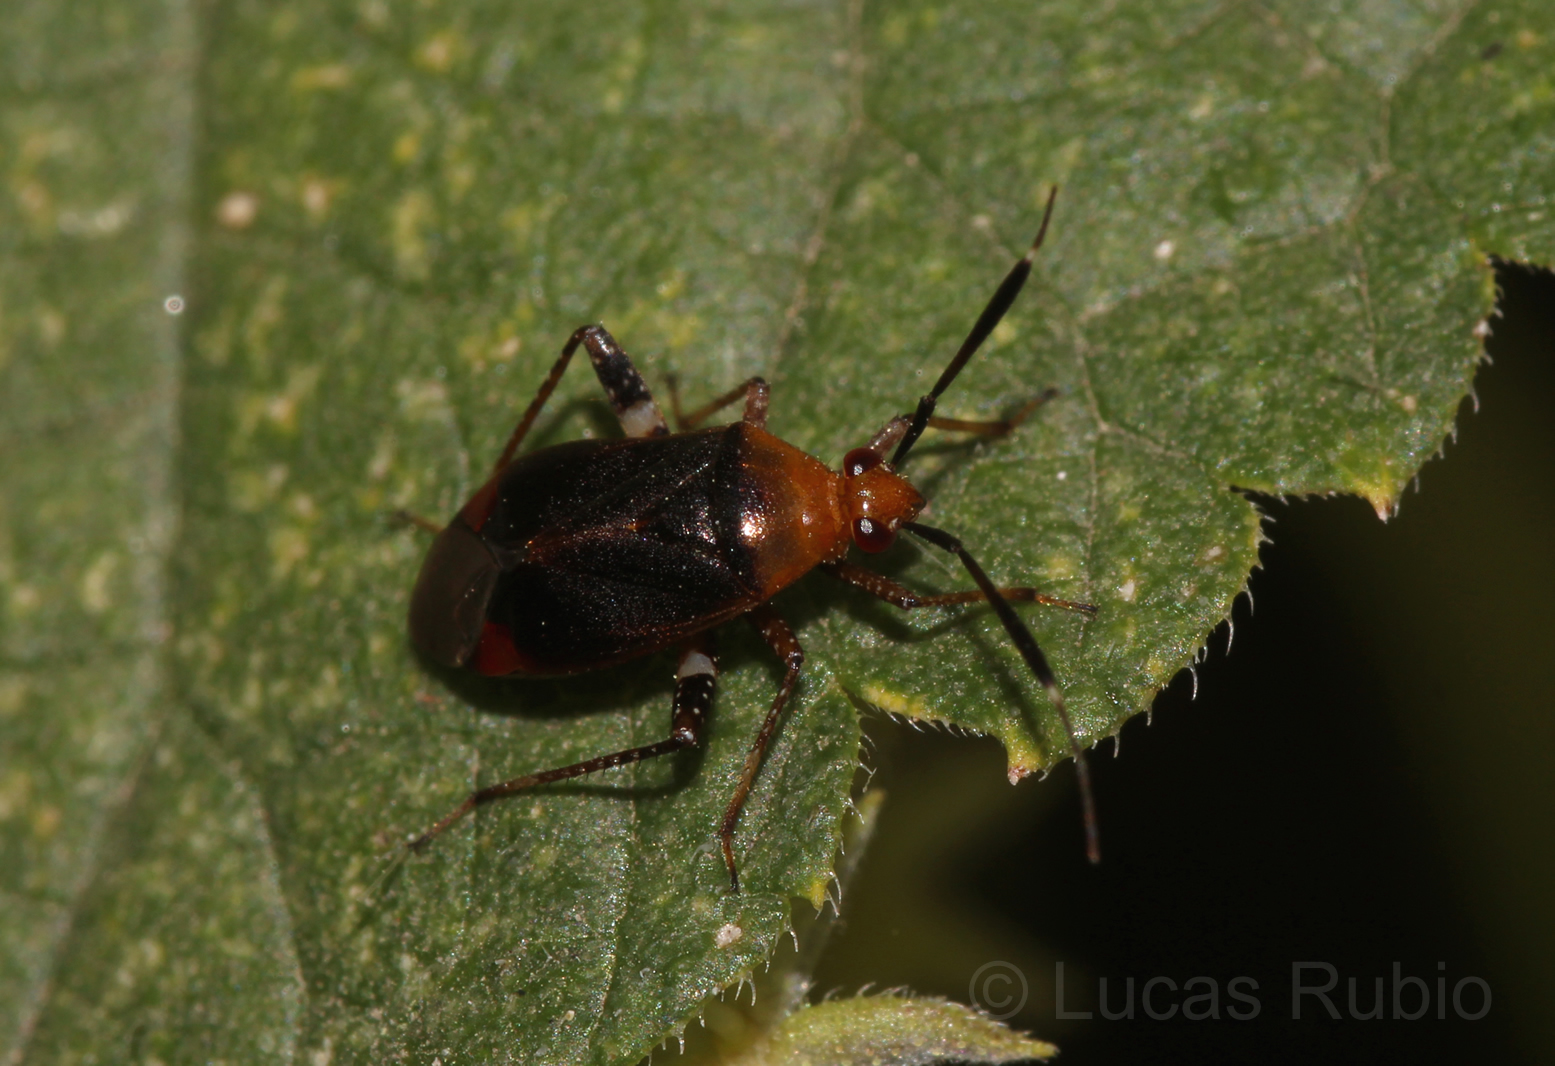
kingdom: Animalia
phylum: Arthropoda
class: Insecta
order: Hemiptera
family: Miridae
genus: Horciasinus
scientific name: Horciasinus argentinus
